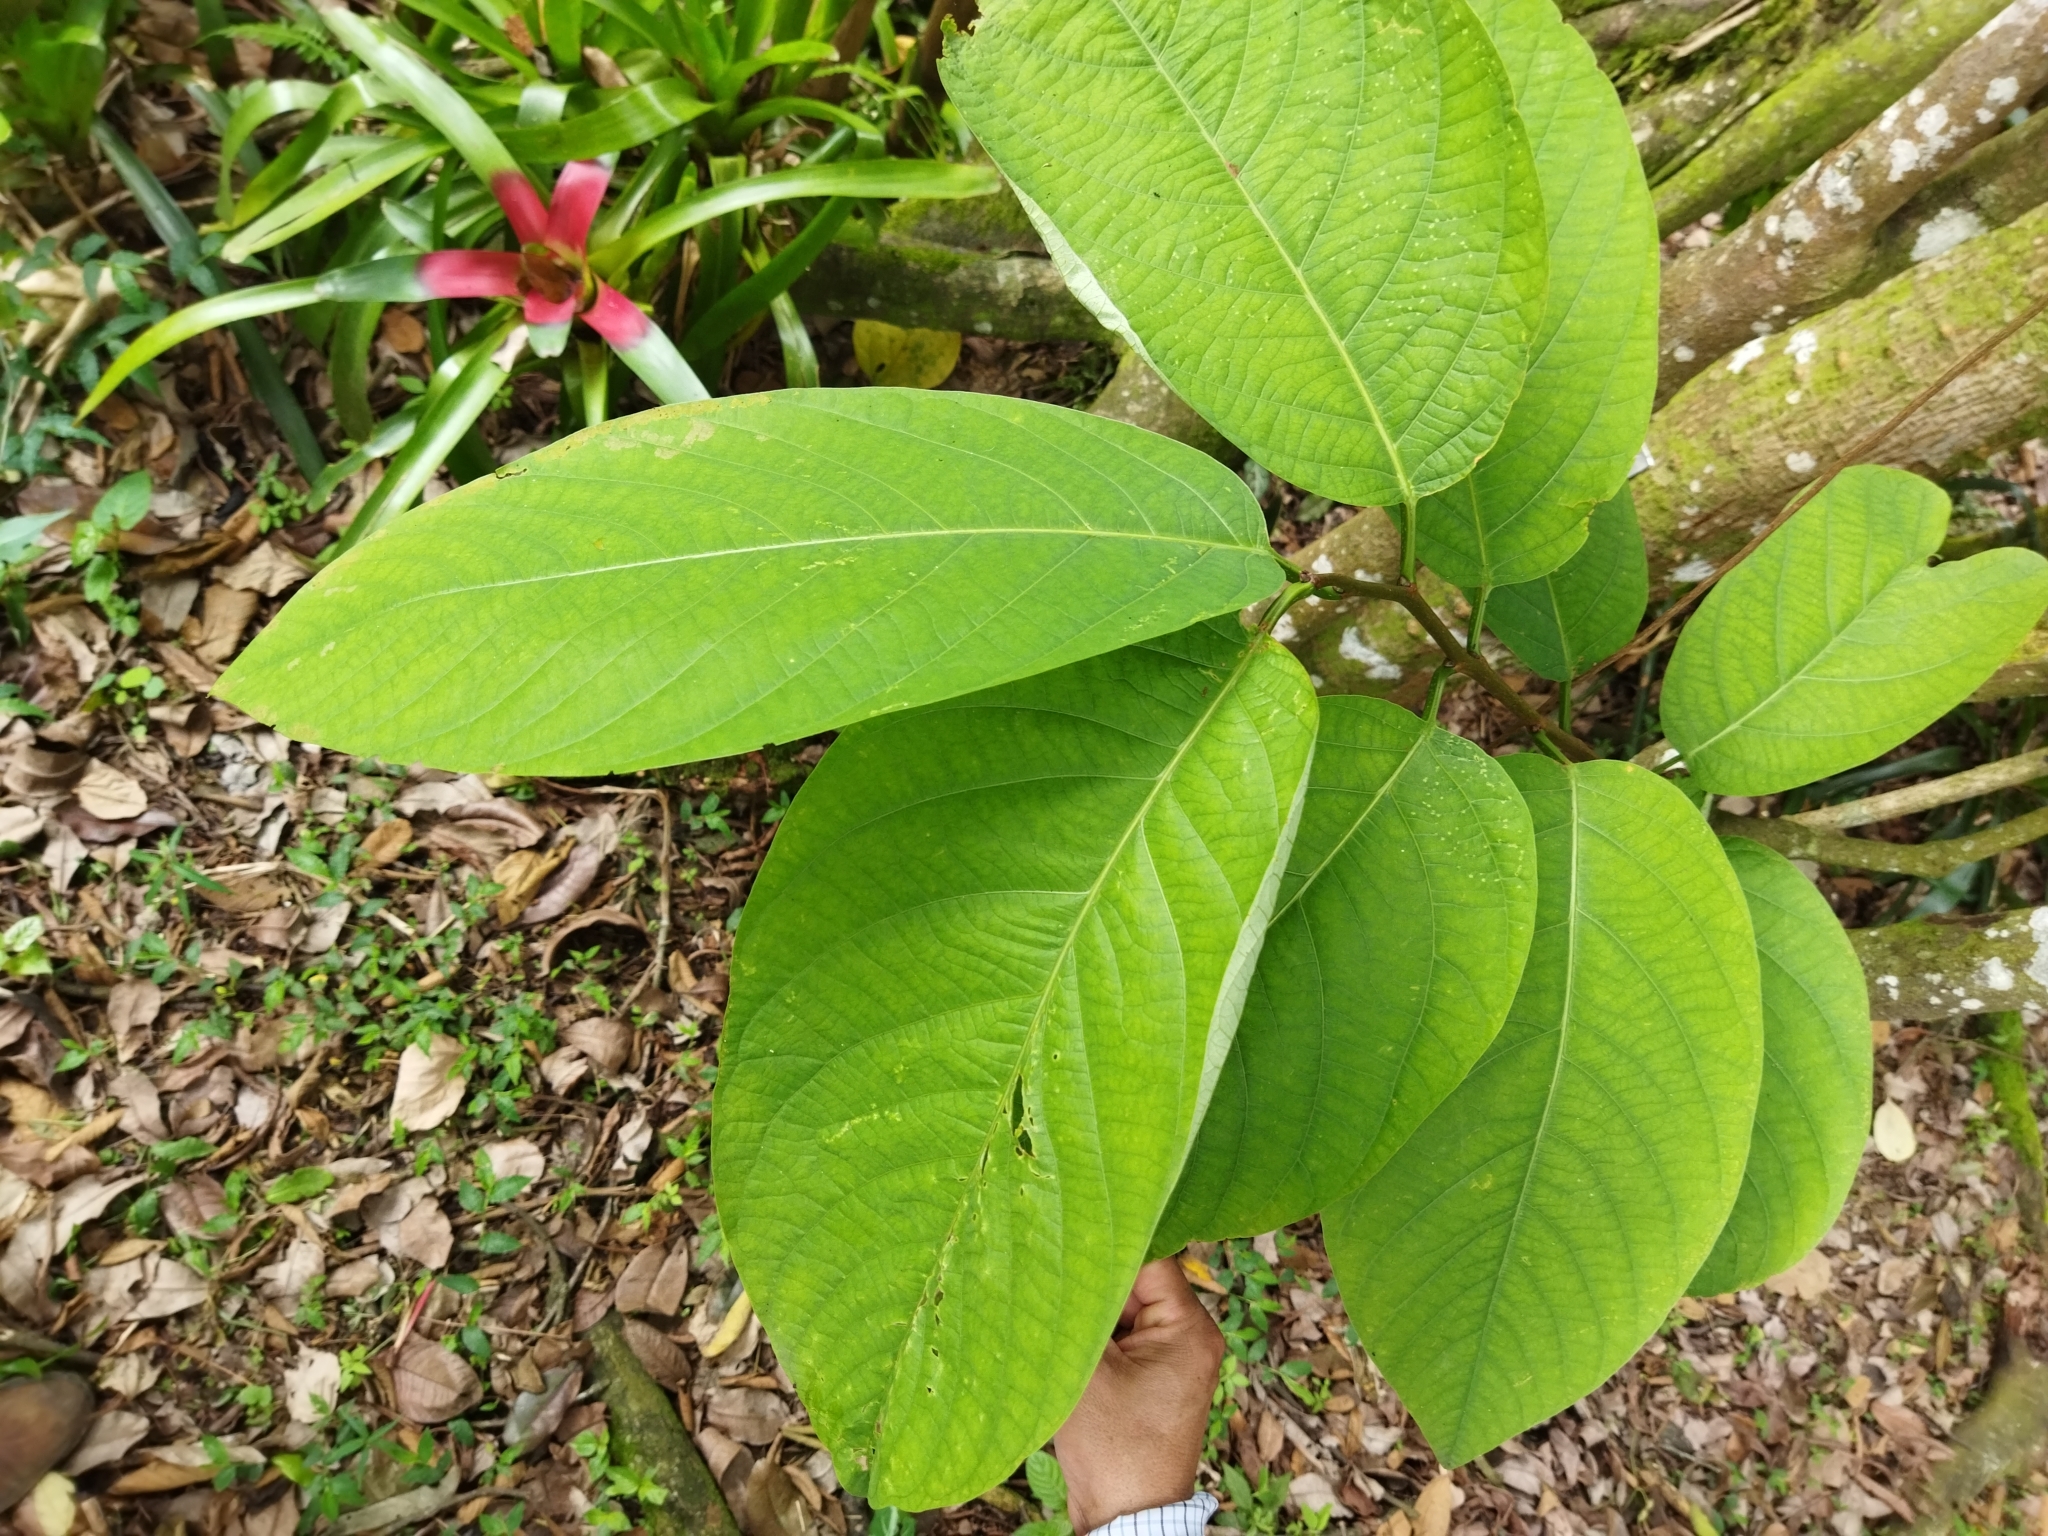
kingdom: Plantae
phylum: Tracheophyta
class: Magnoliopsida
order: Malpighiales
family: Passifloraceae
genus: Passiflora
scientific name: Passiflora magnoliifolia
